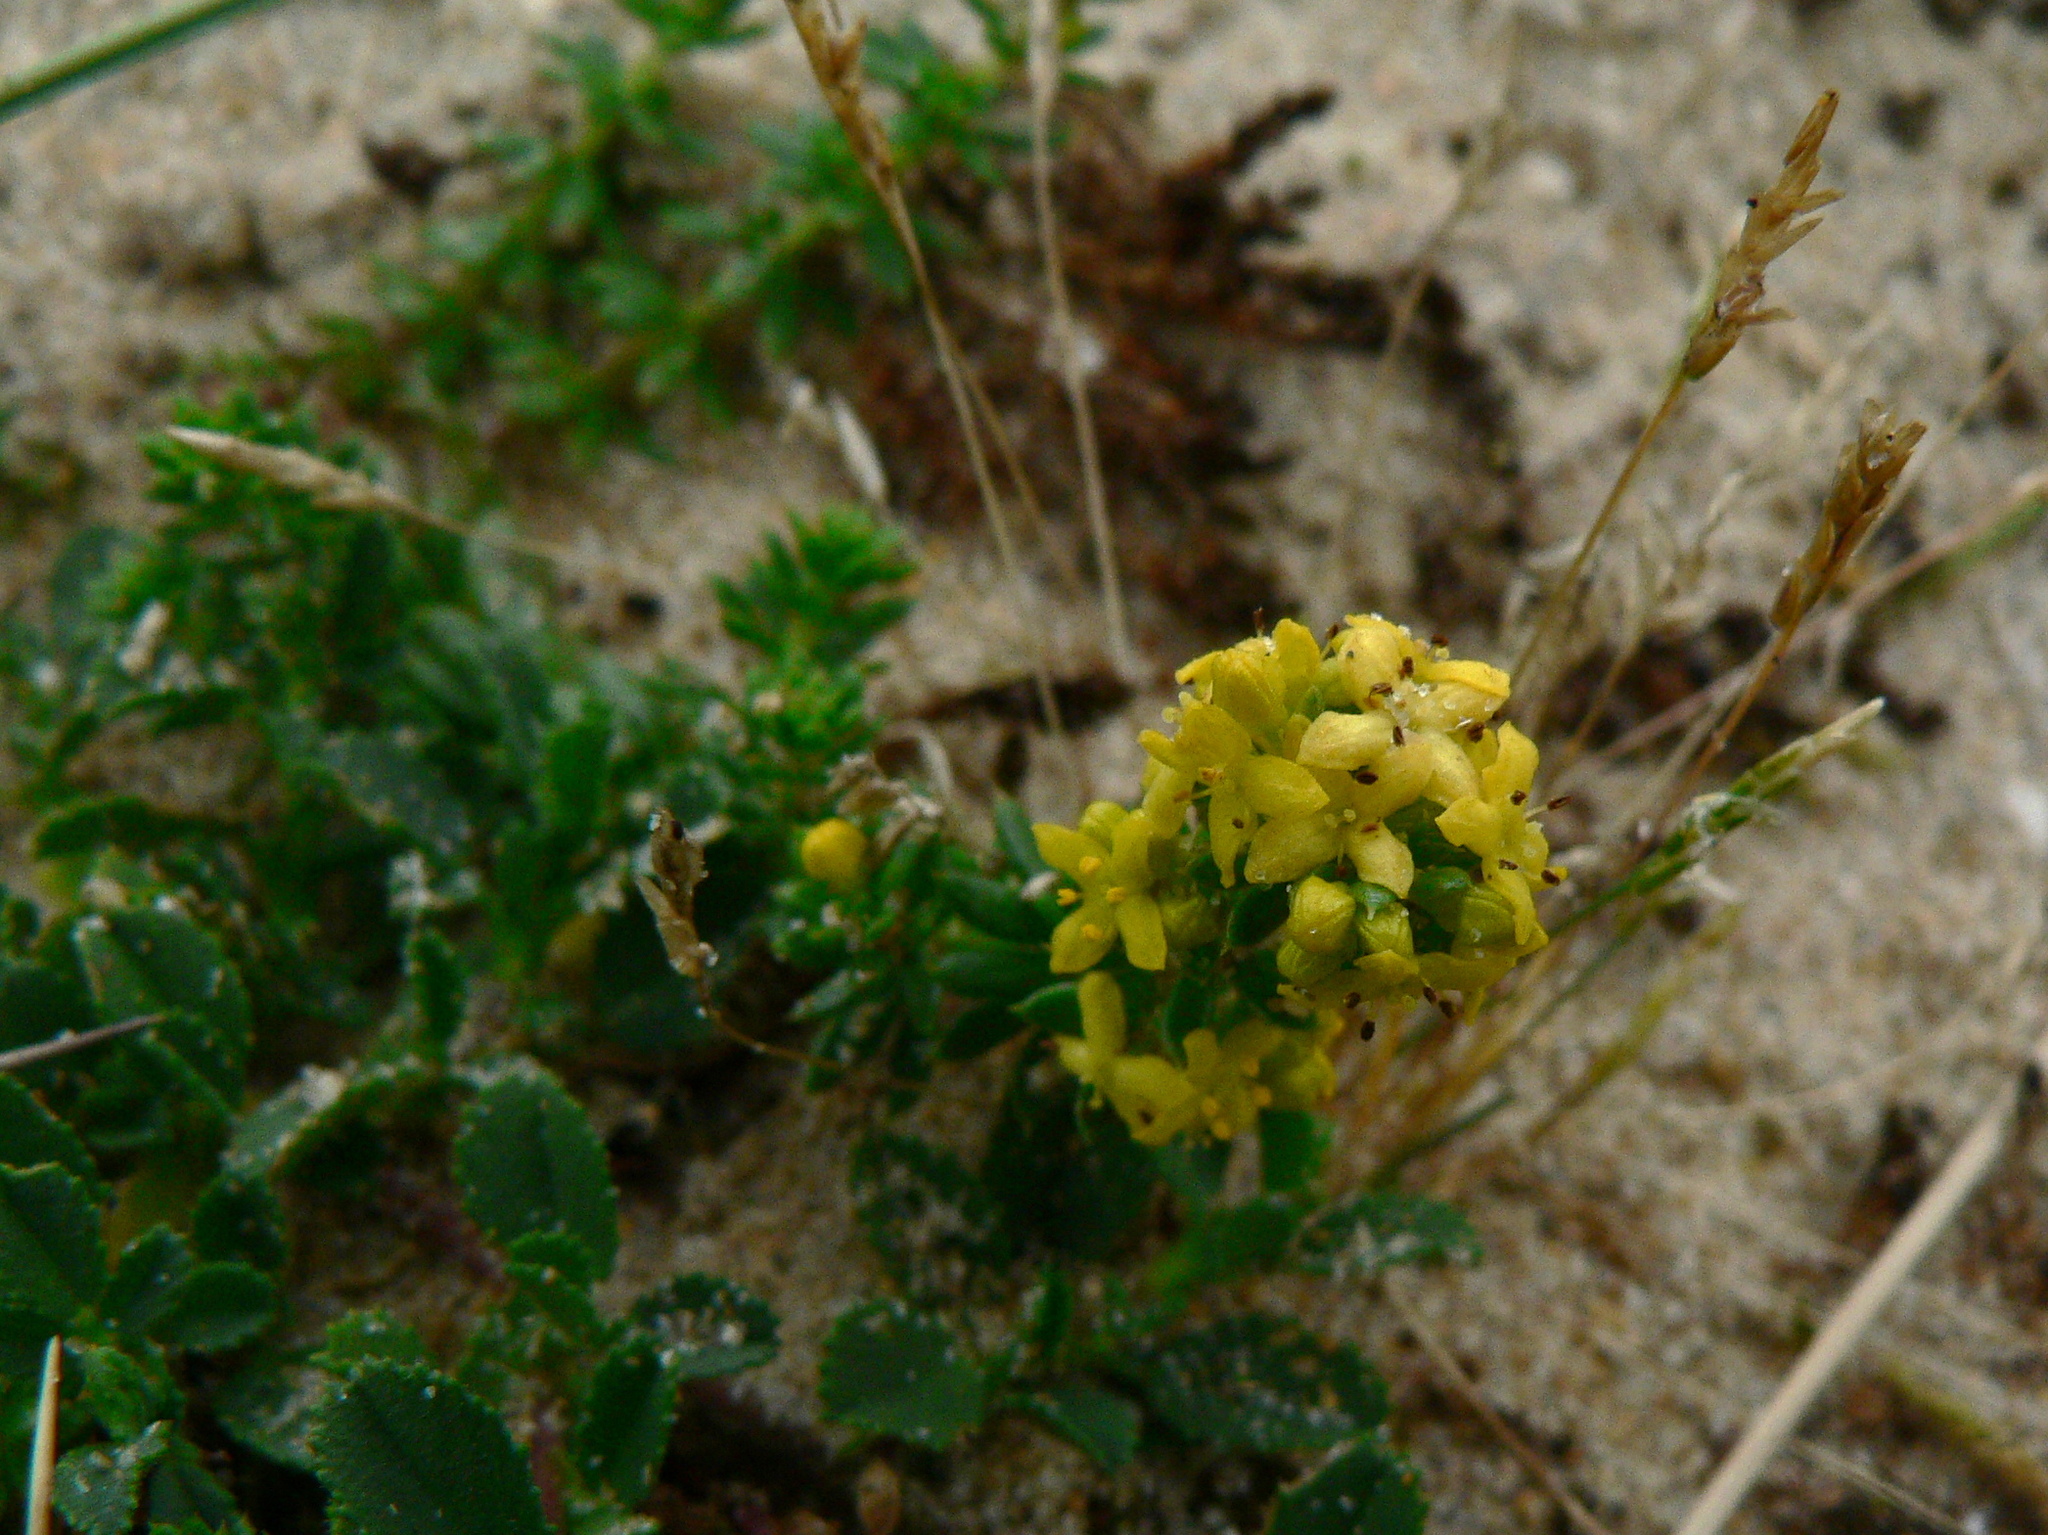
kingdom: Plantae
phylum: Tracheophyta
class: Magnoliopsida
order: Gentianales
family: Rubiaceae
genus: Galium
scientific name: Galium arenarium
